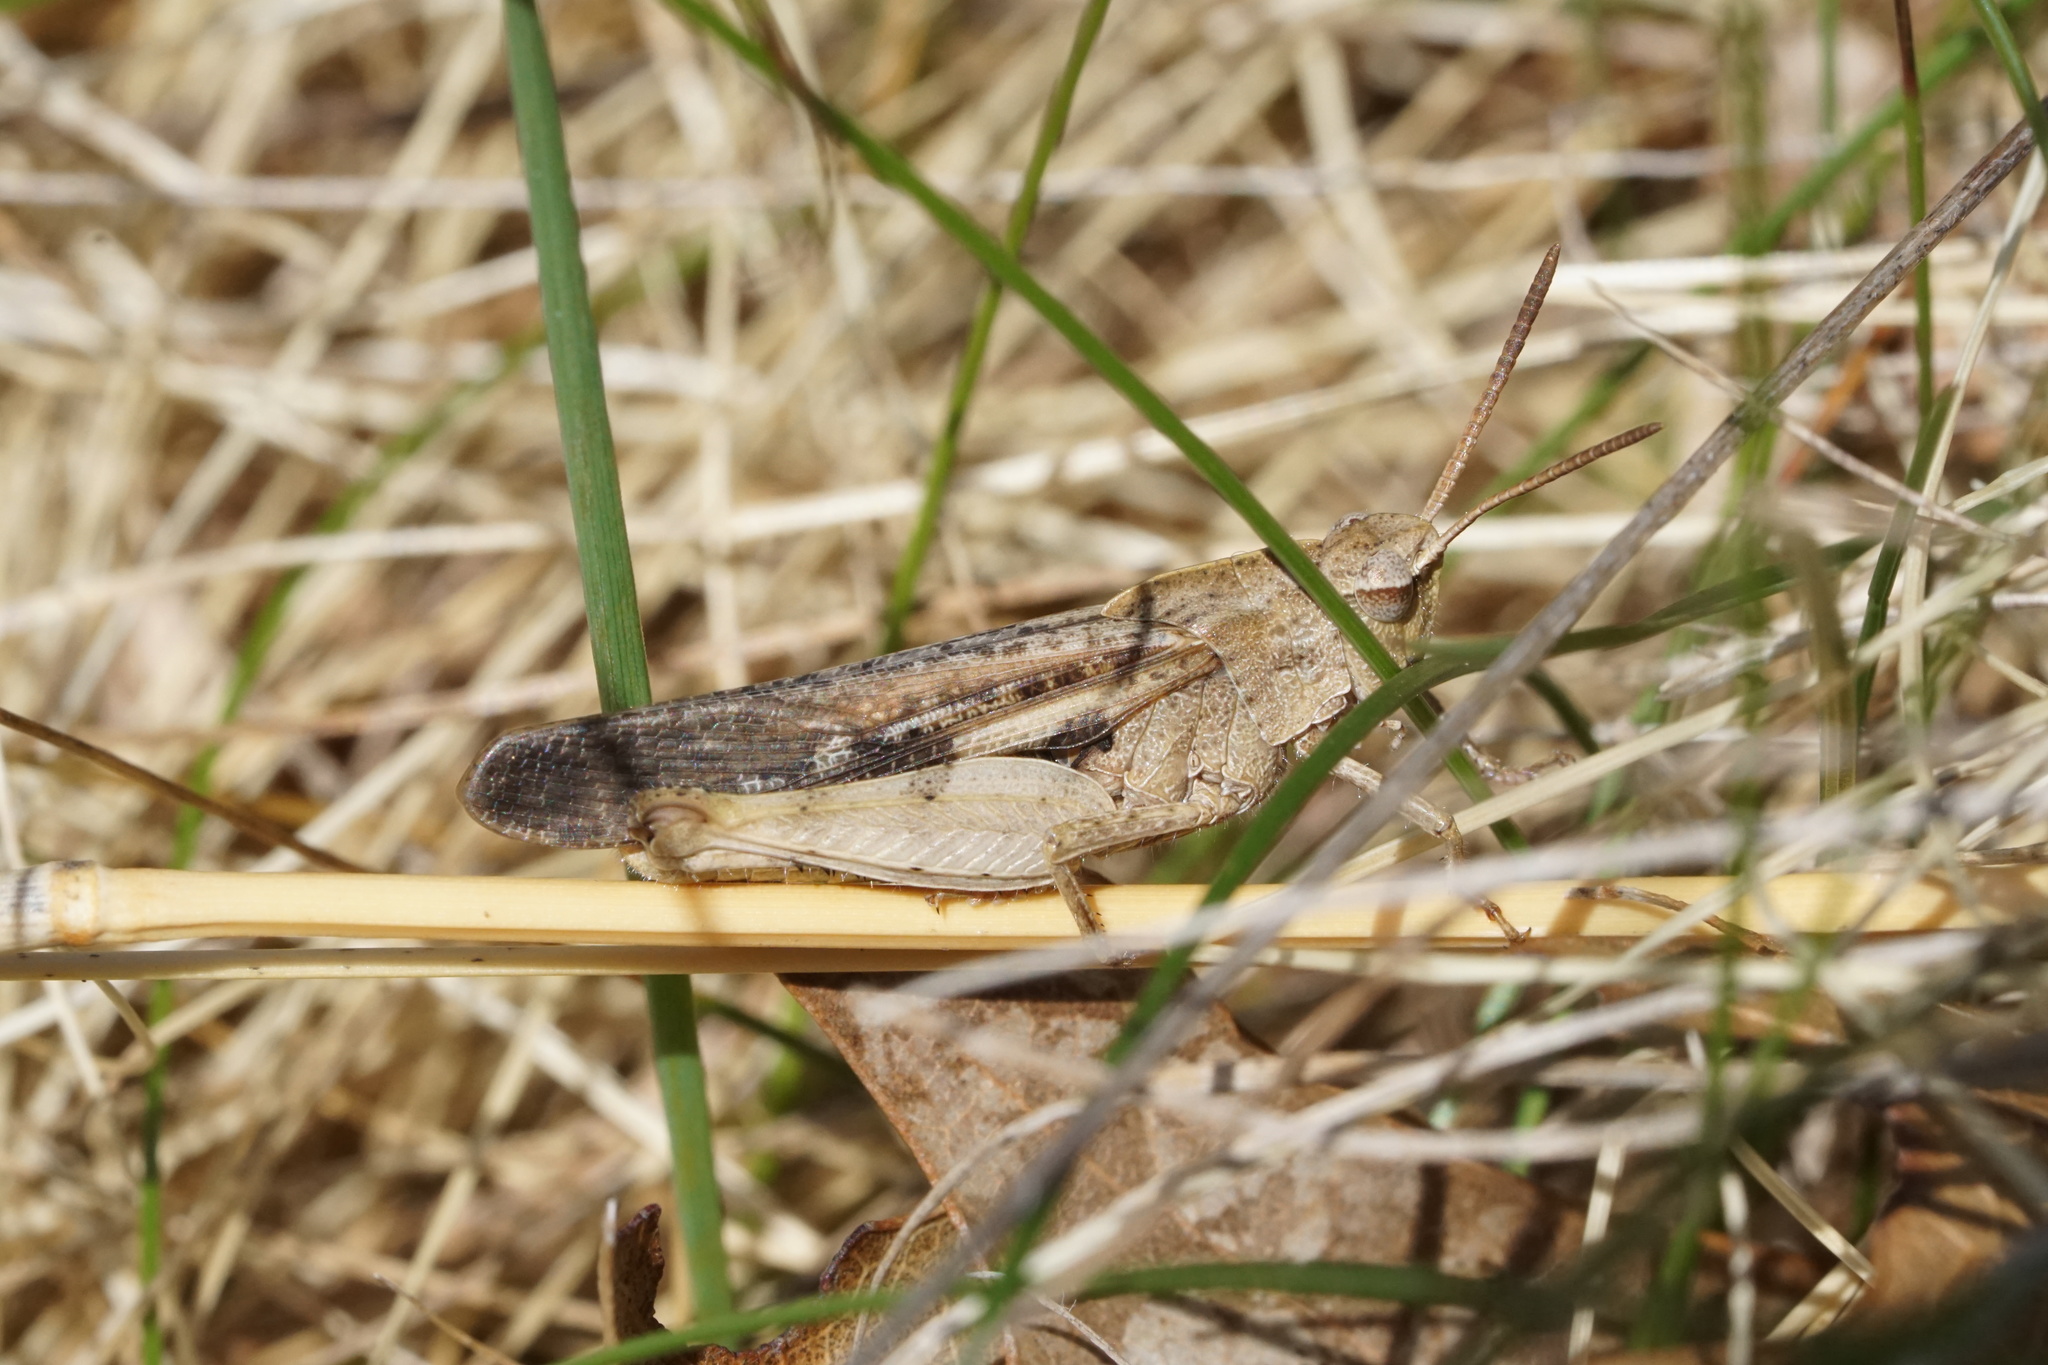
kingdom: Animalia
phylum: Arthropoda
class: Insecta
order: Orthoptera
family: Acrididae
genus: Chortophaga
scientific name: Chortophaga viridifasciata
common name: Green-striped grasshopper
